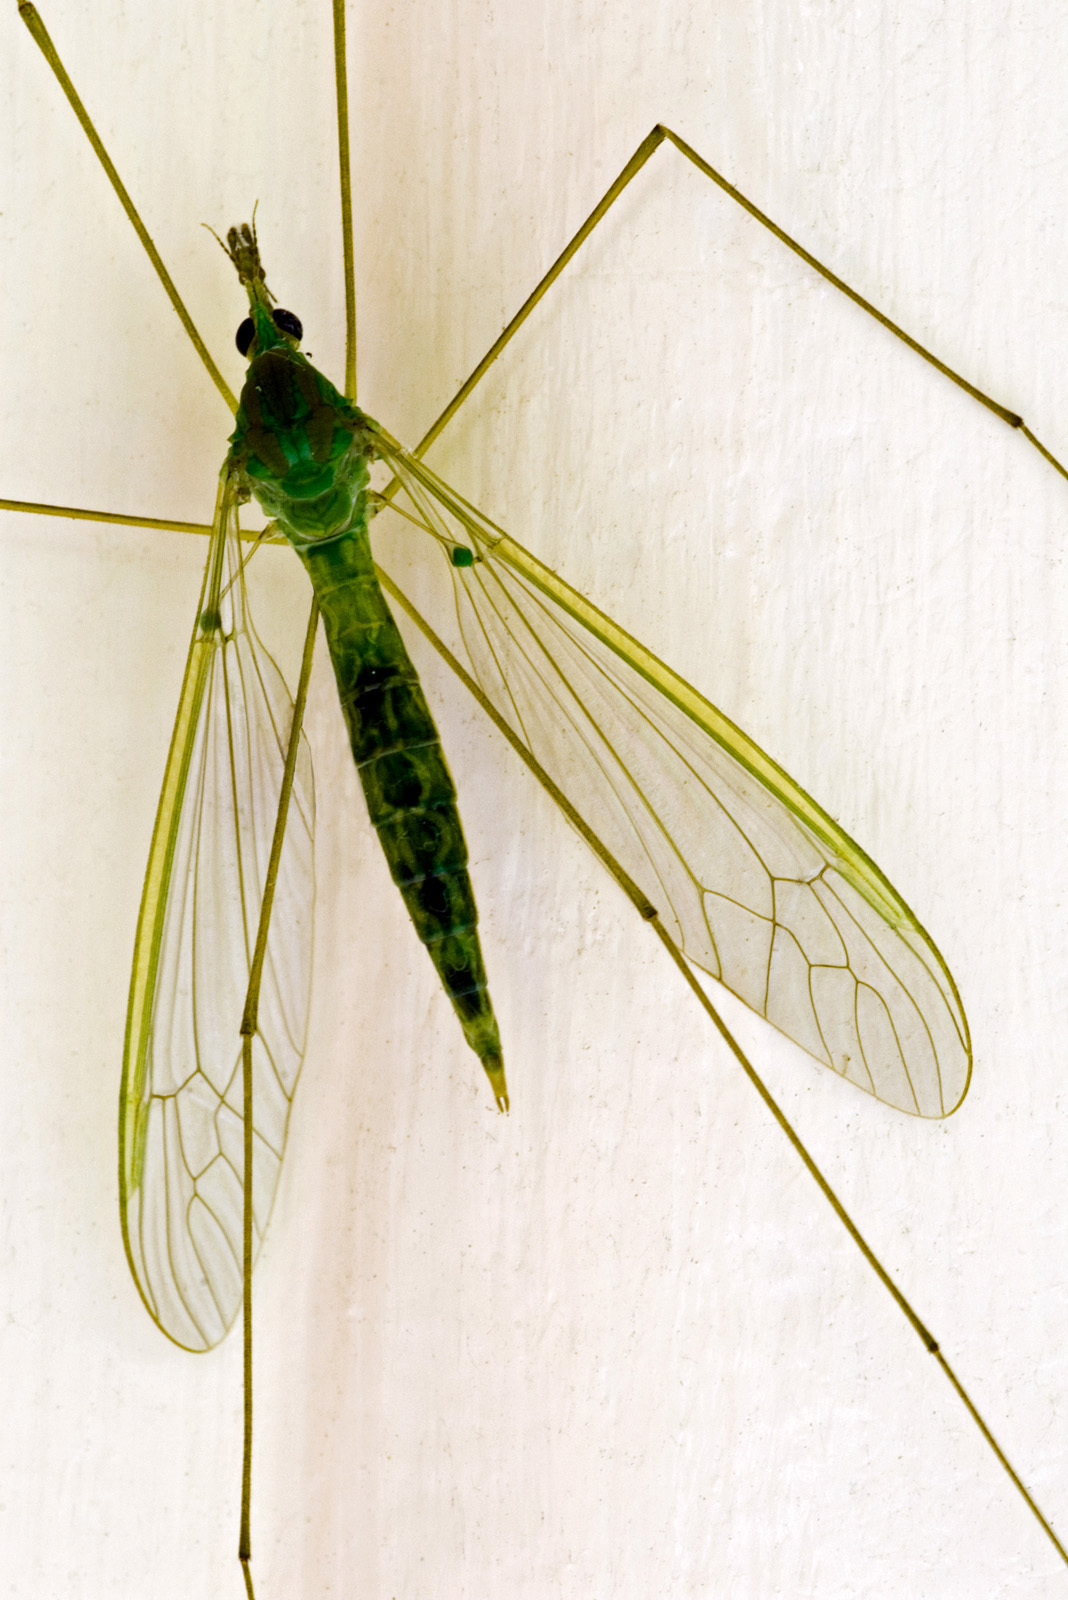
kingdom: Animalia
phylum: Arthropoda
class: Insecta
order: Diptera
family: Tipulidae
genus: Leptotarsus
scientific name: Leptotarsus virescens
